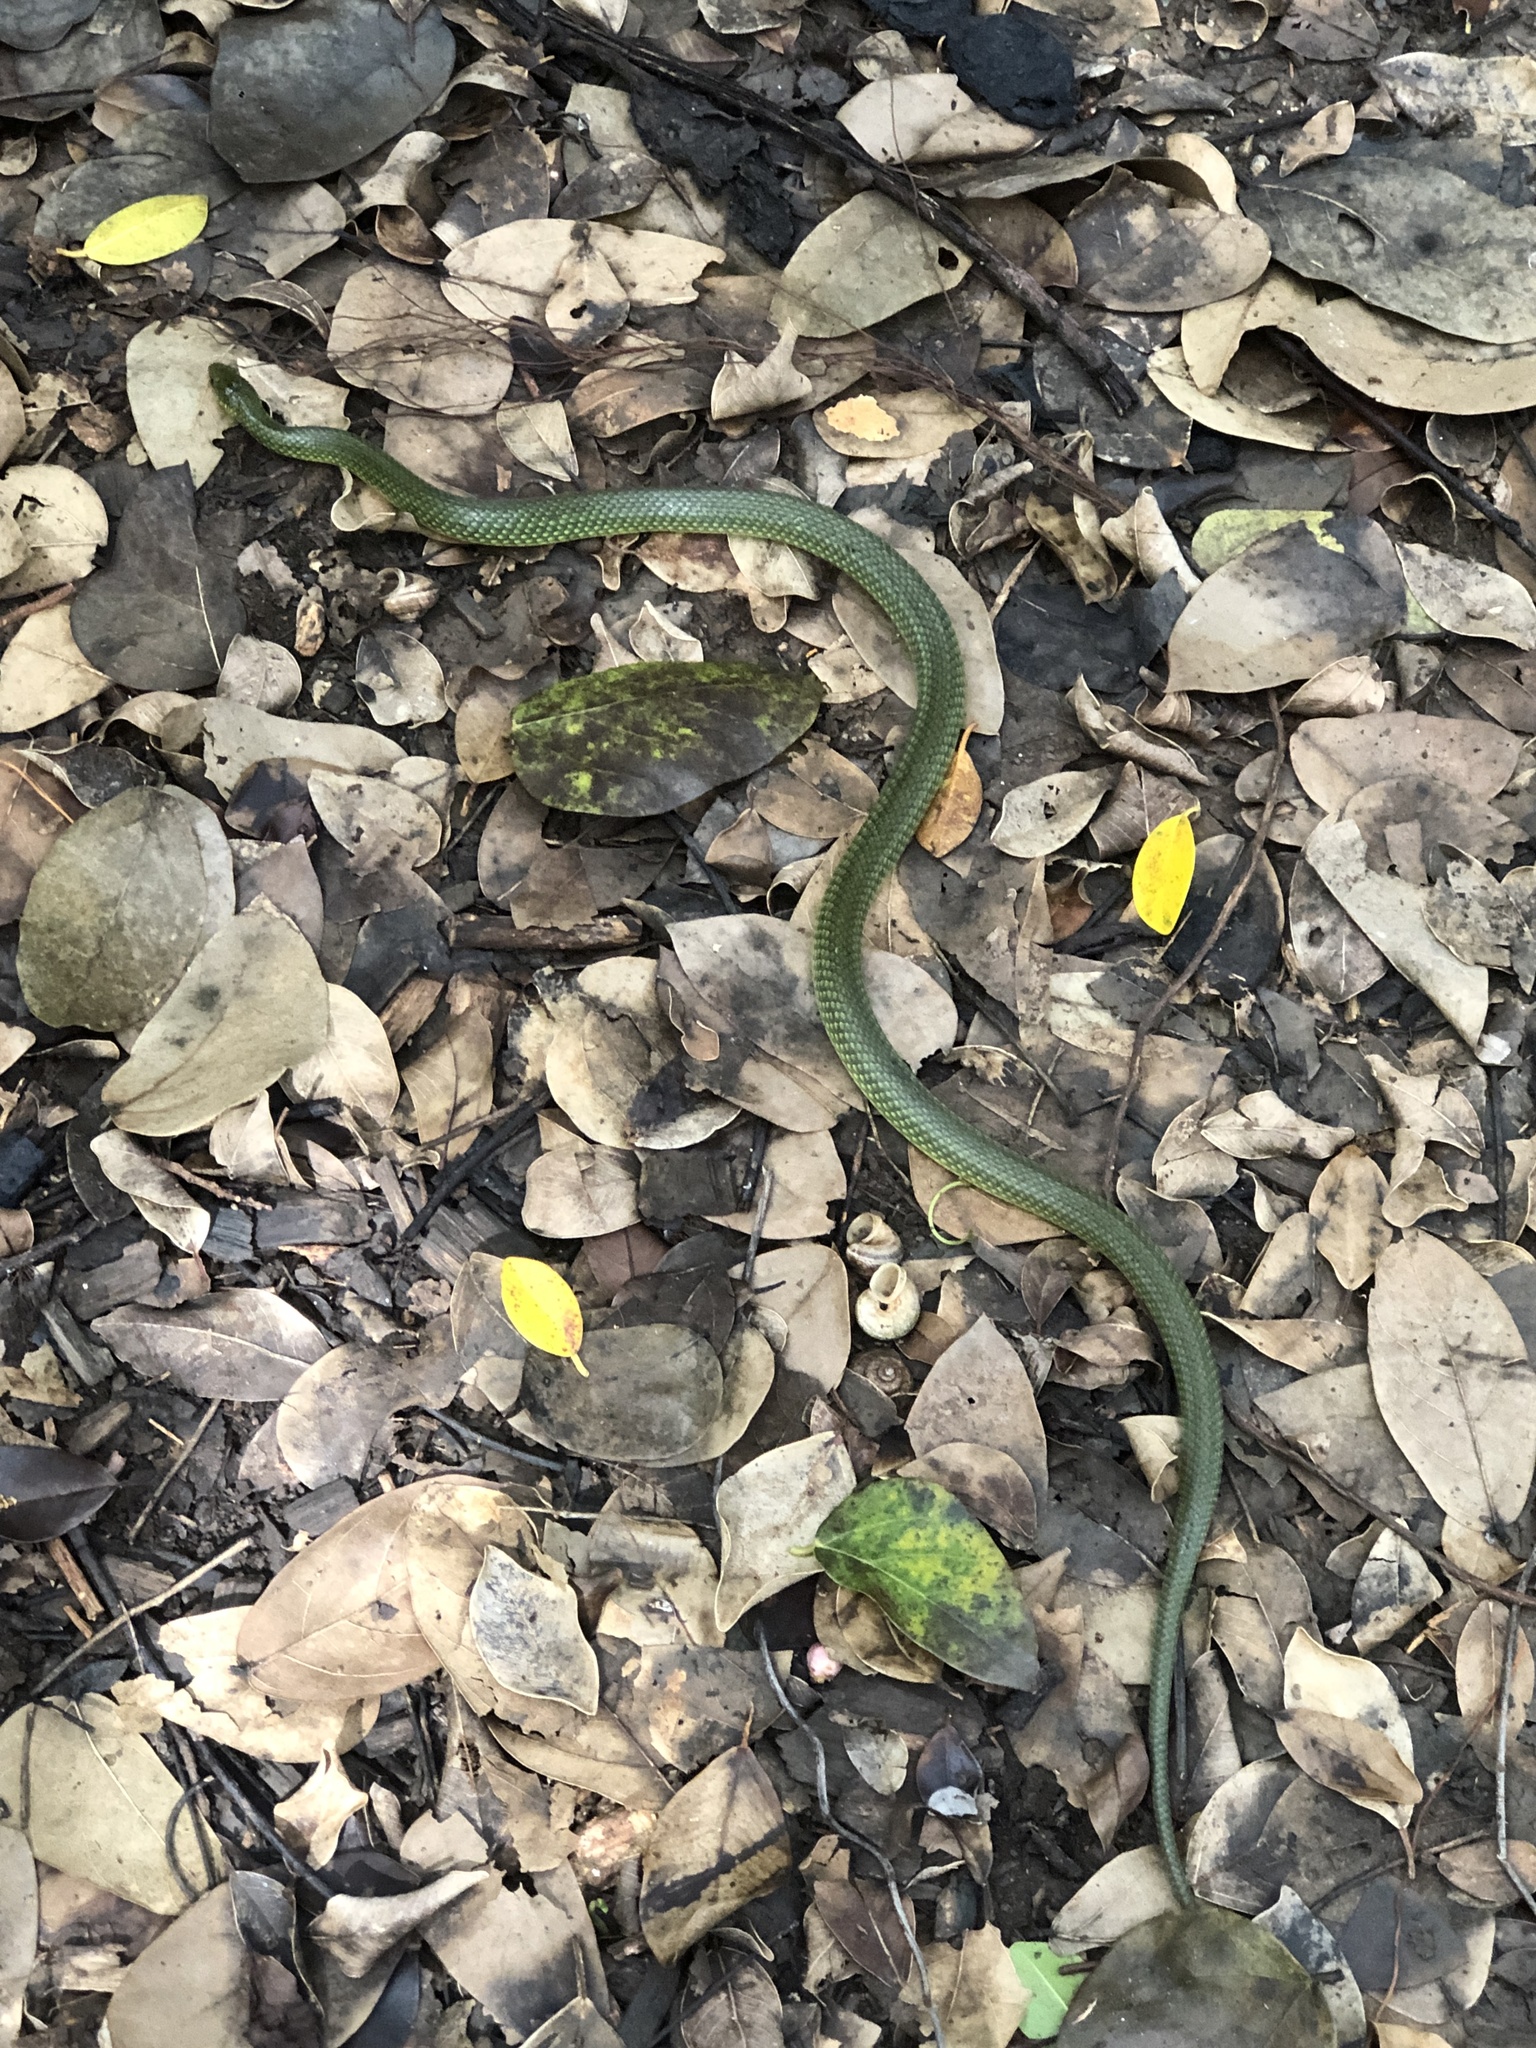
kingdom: Animalia
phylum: Chordata
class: Squamata
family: Colubridae
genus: Ptyas
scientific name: Ptyas semicarinata
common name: Ryukyu green snake
